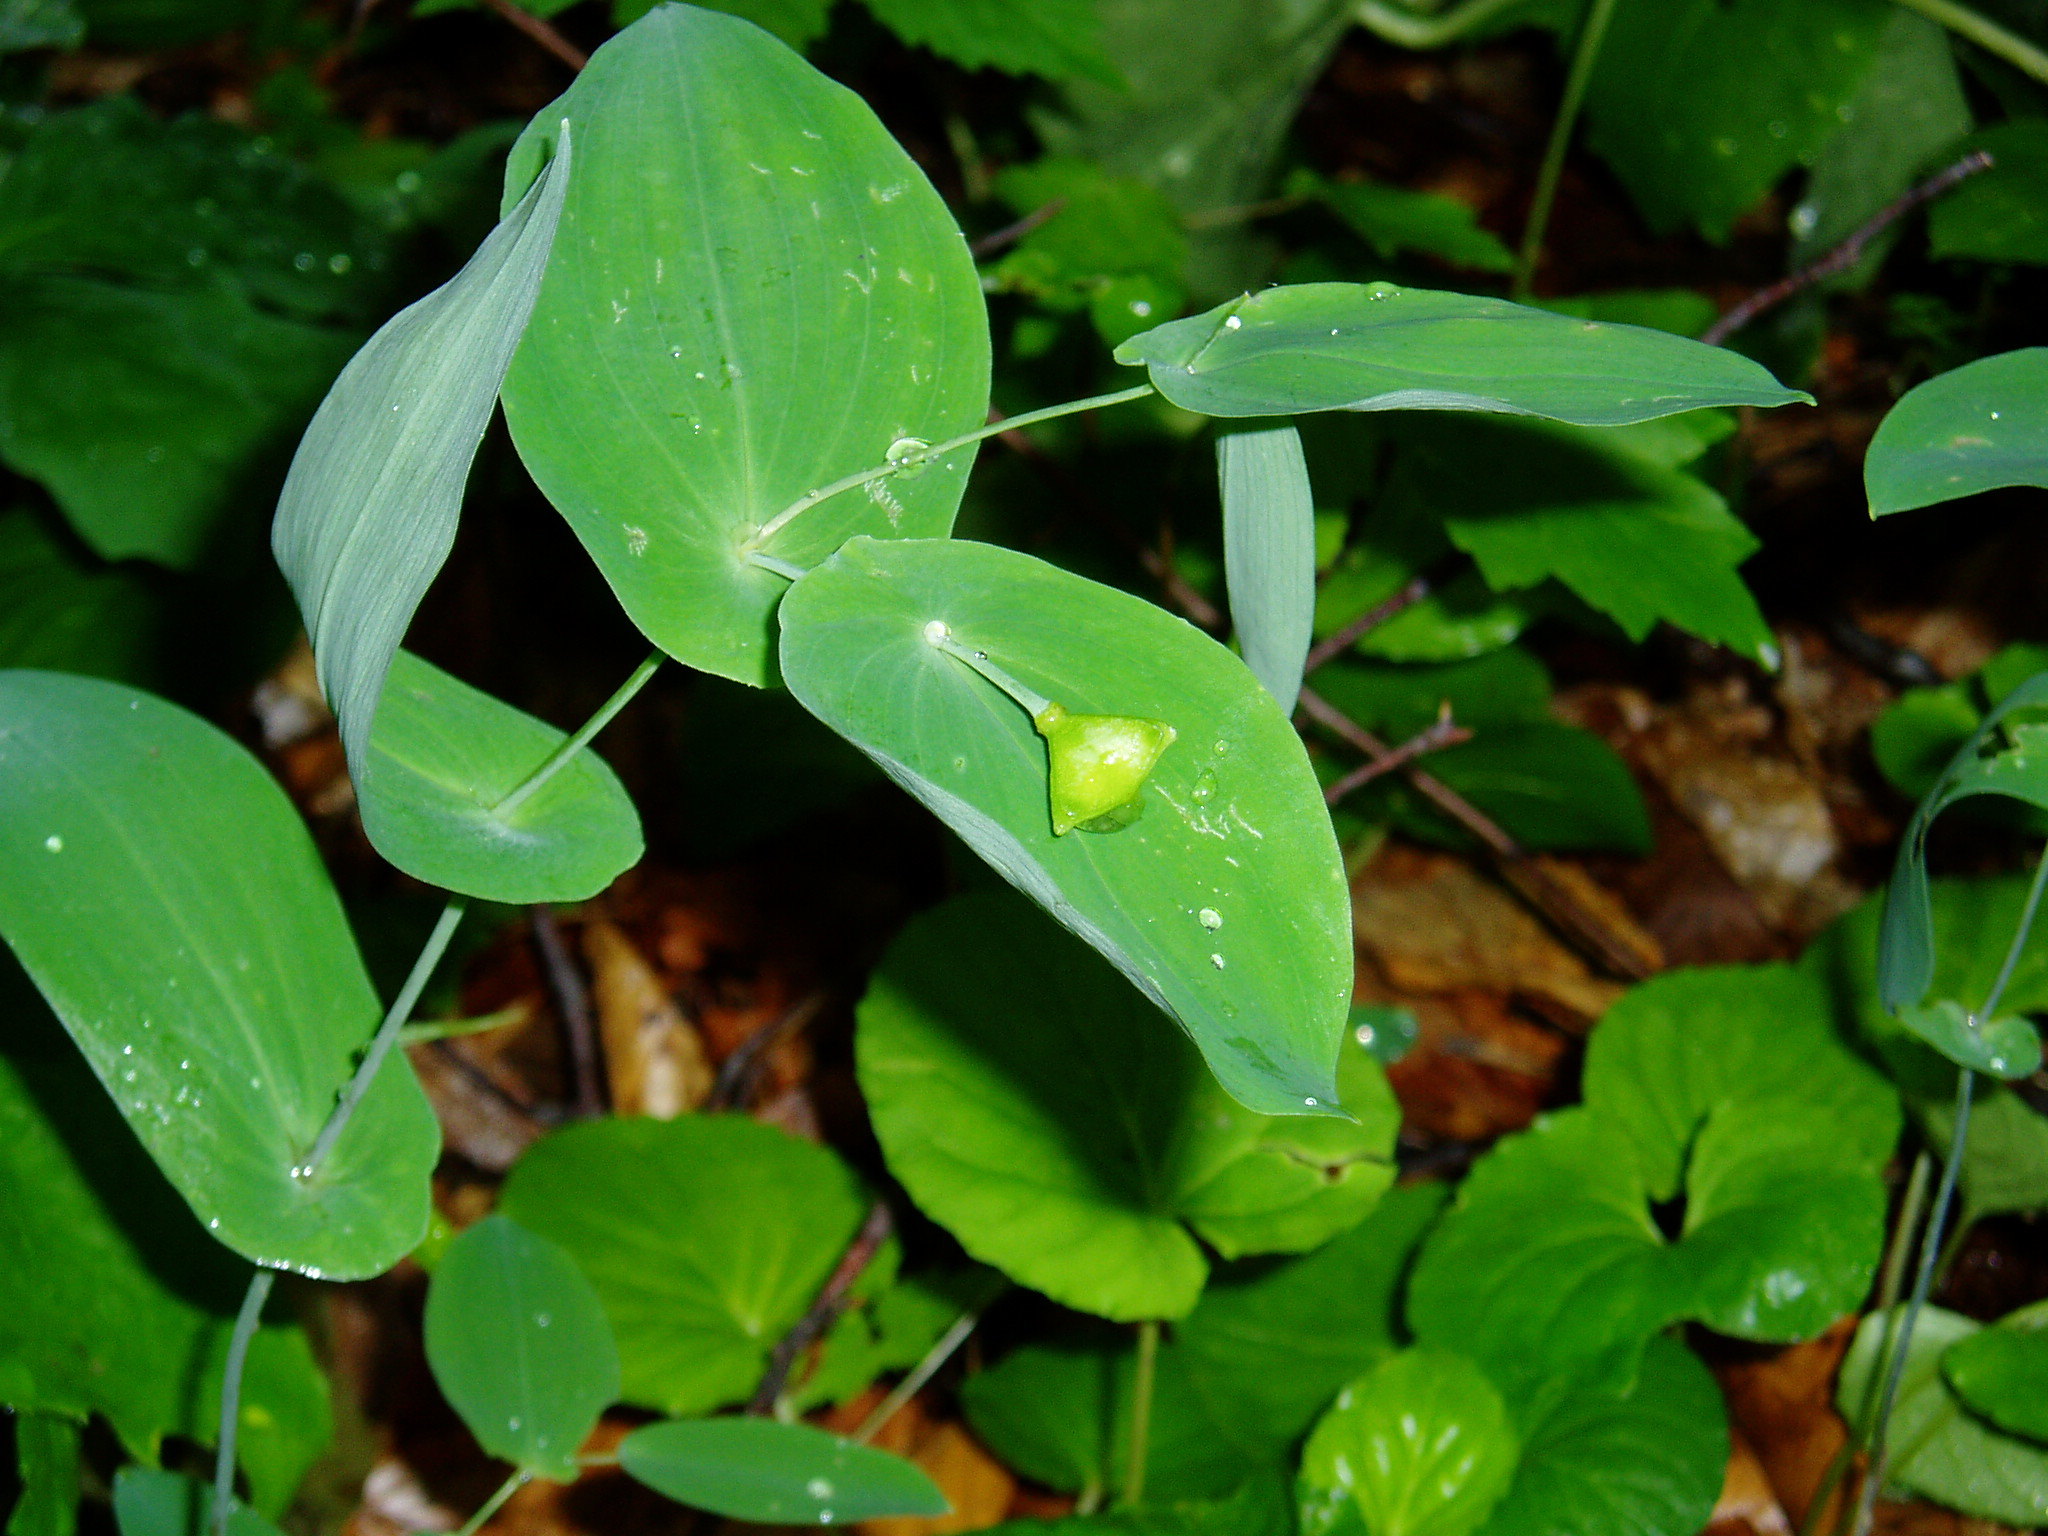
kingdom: Plantae
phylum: Tracheophyta
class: Liliopsida
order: Liliales
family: Colchicaceae
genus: Uvularia
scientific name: Uvularia perfoliata
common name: Perfoliate bellwort
